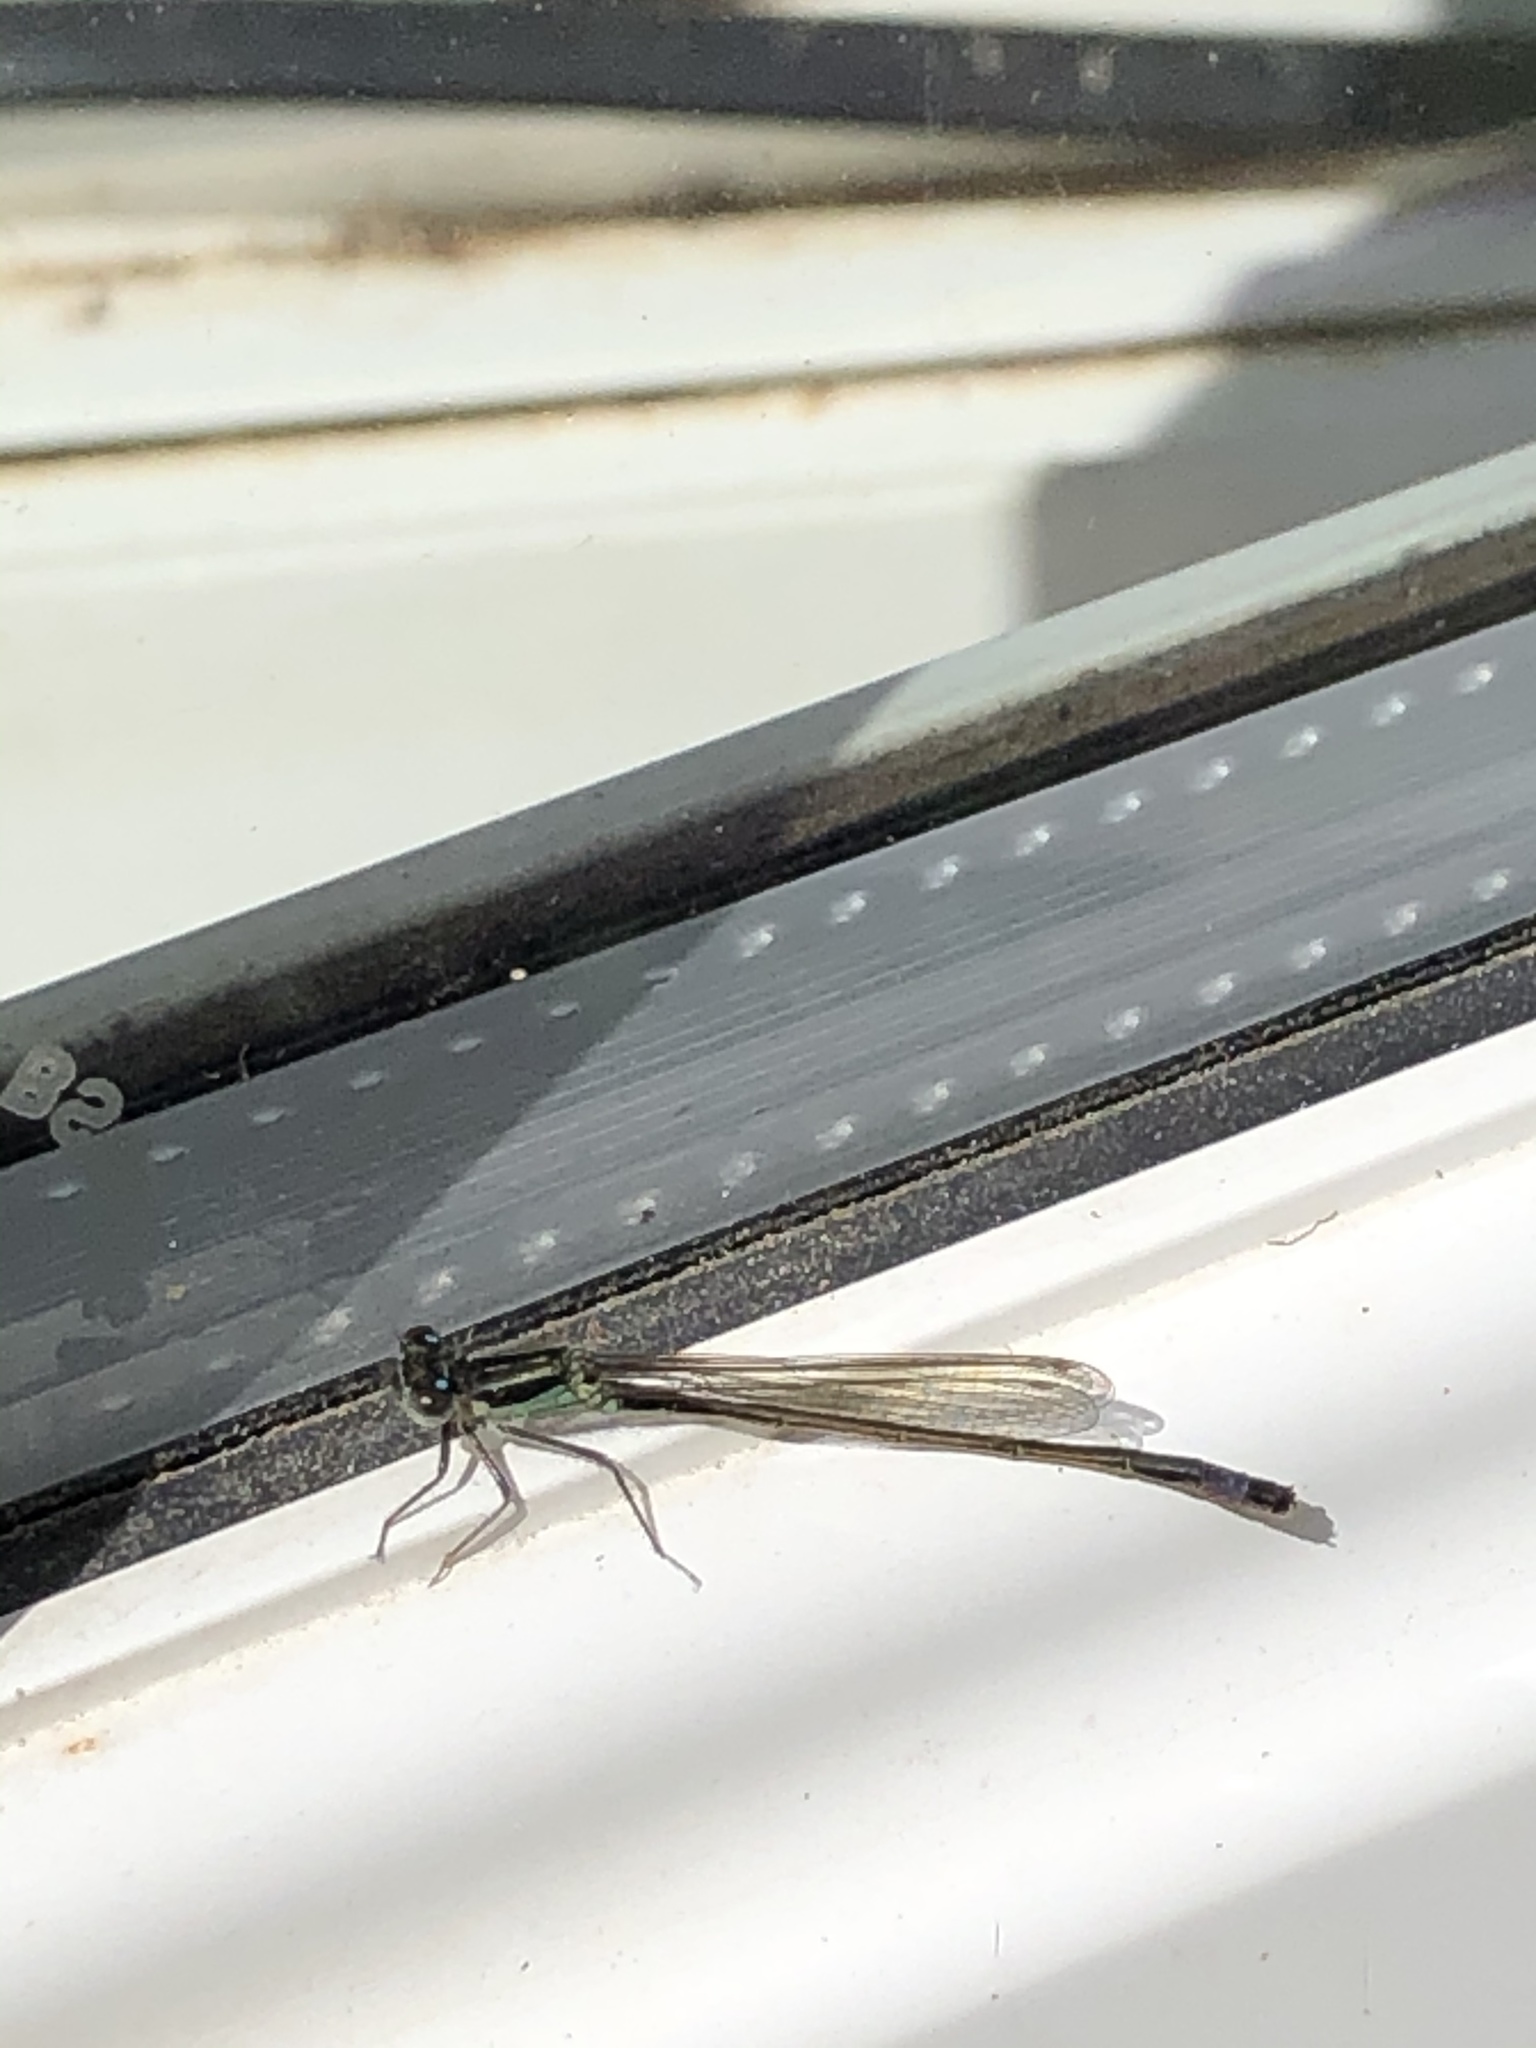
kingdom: Animalia
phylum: Arthropoda
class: Insecta
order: Odonata
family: Coenagrionidae
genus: Ischnura
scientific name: Ischnura elegans
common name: Blue-tailed damselfly
